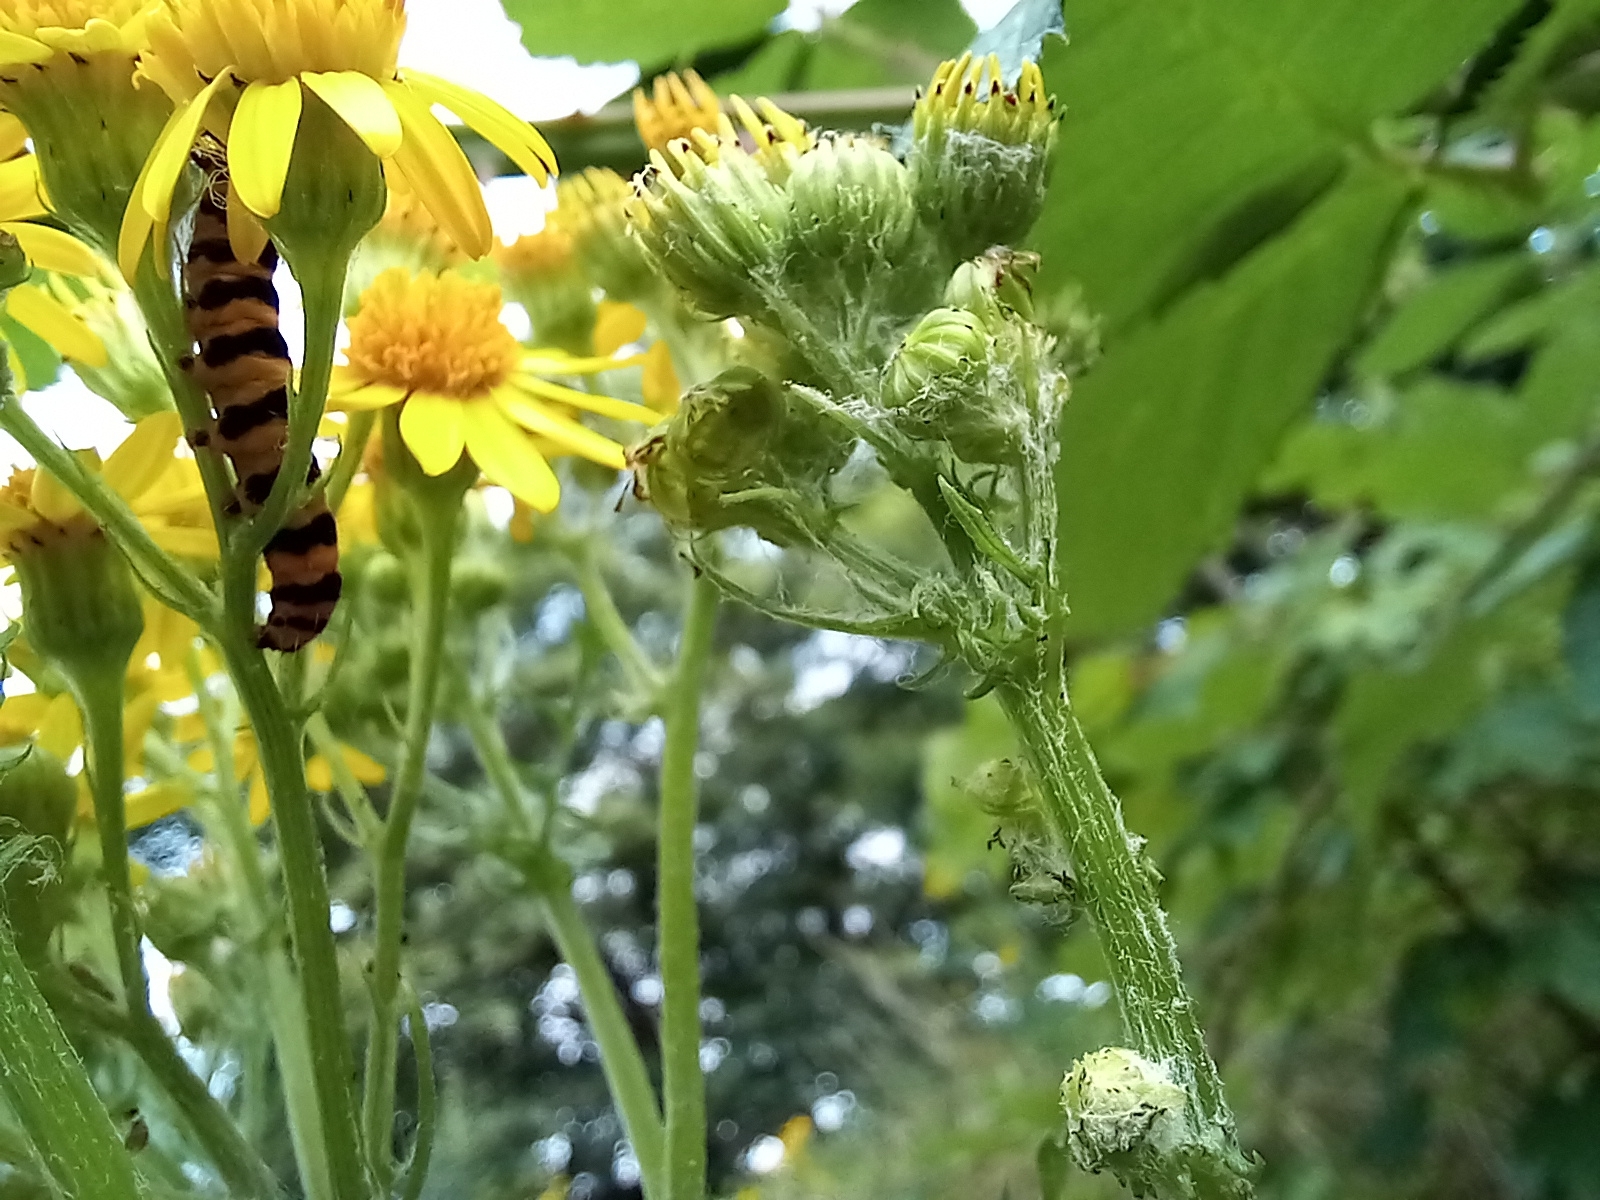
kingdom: Animalia
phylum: Arthropoda
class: Insecta
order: Lepidoptera
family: Erebidae
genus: Tyria
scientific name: Tyria jacobaeae
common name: Cinnabar
